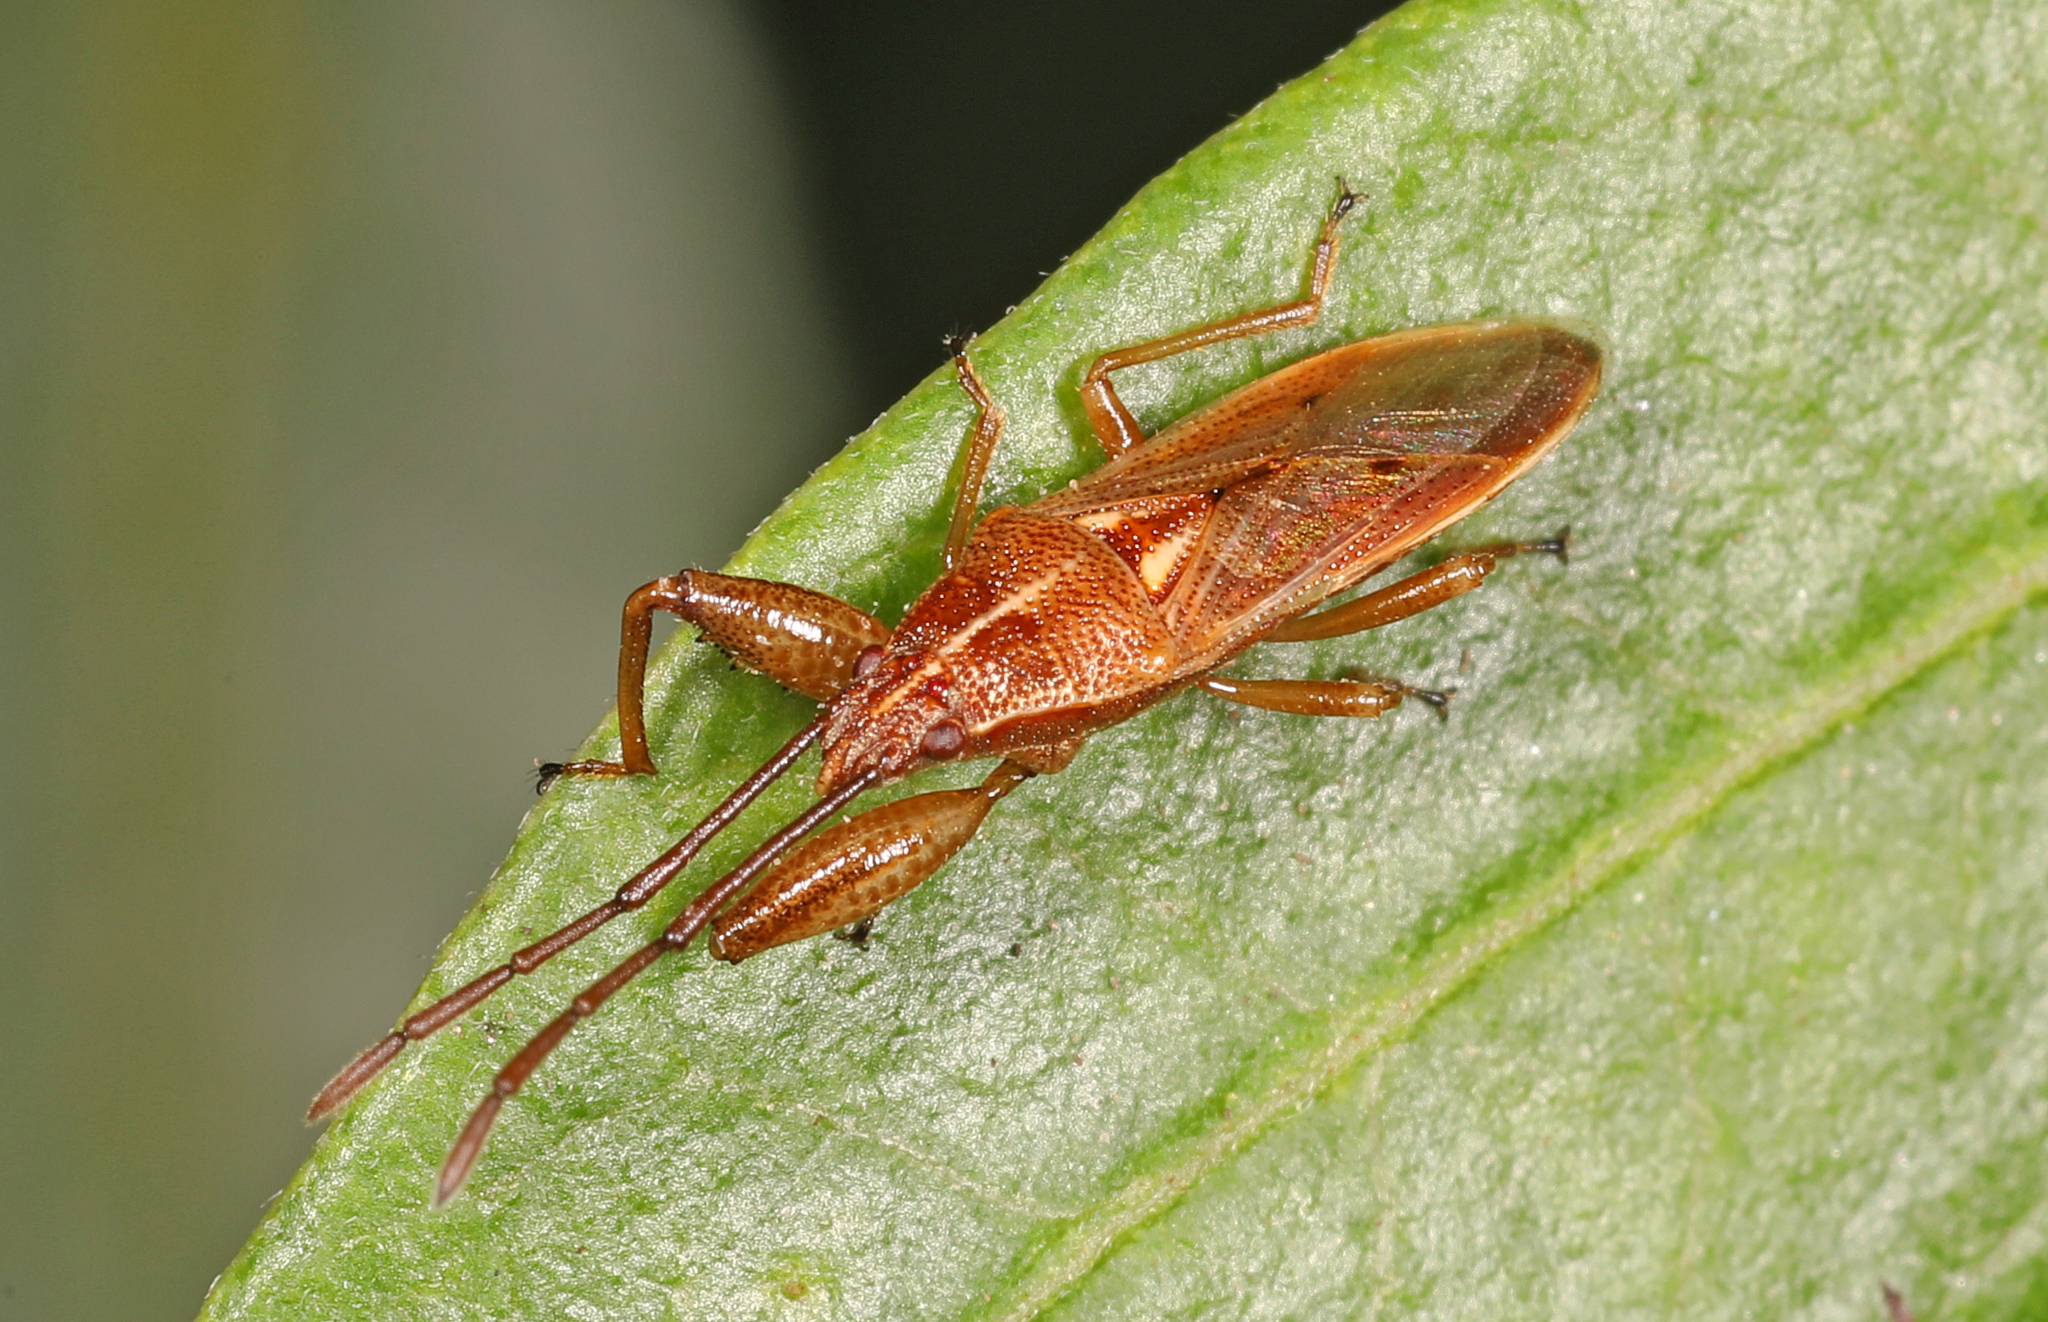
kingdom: Animalia
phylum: Arthropoda
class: Insecta
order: Hemiptera
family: Pachygronthidae
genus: Oedancala
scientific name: Oedancala crassimana
